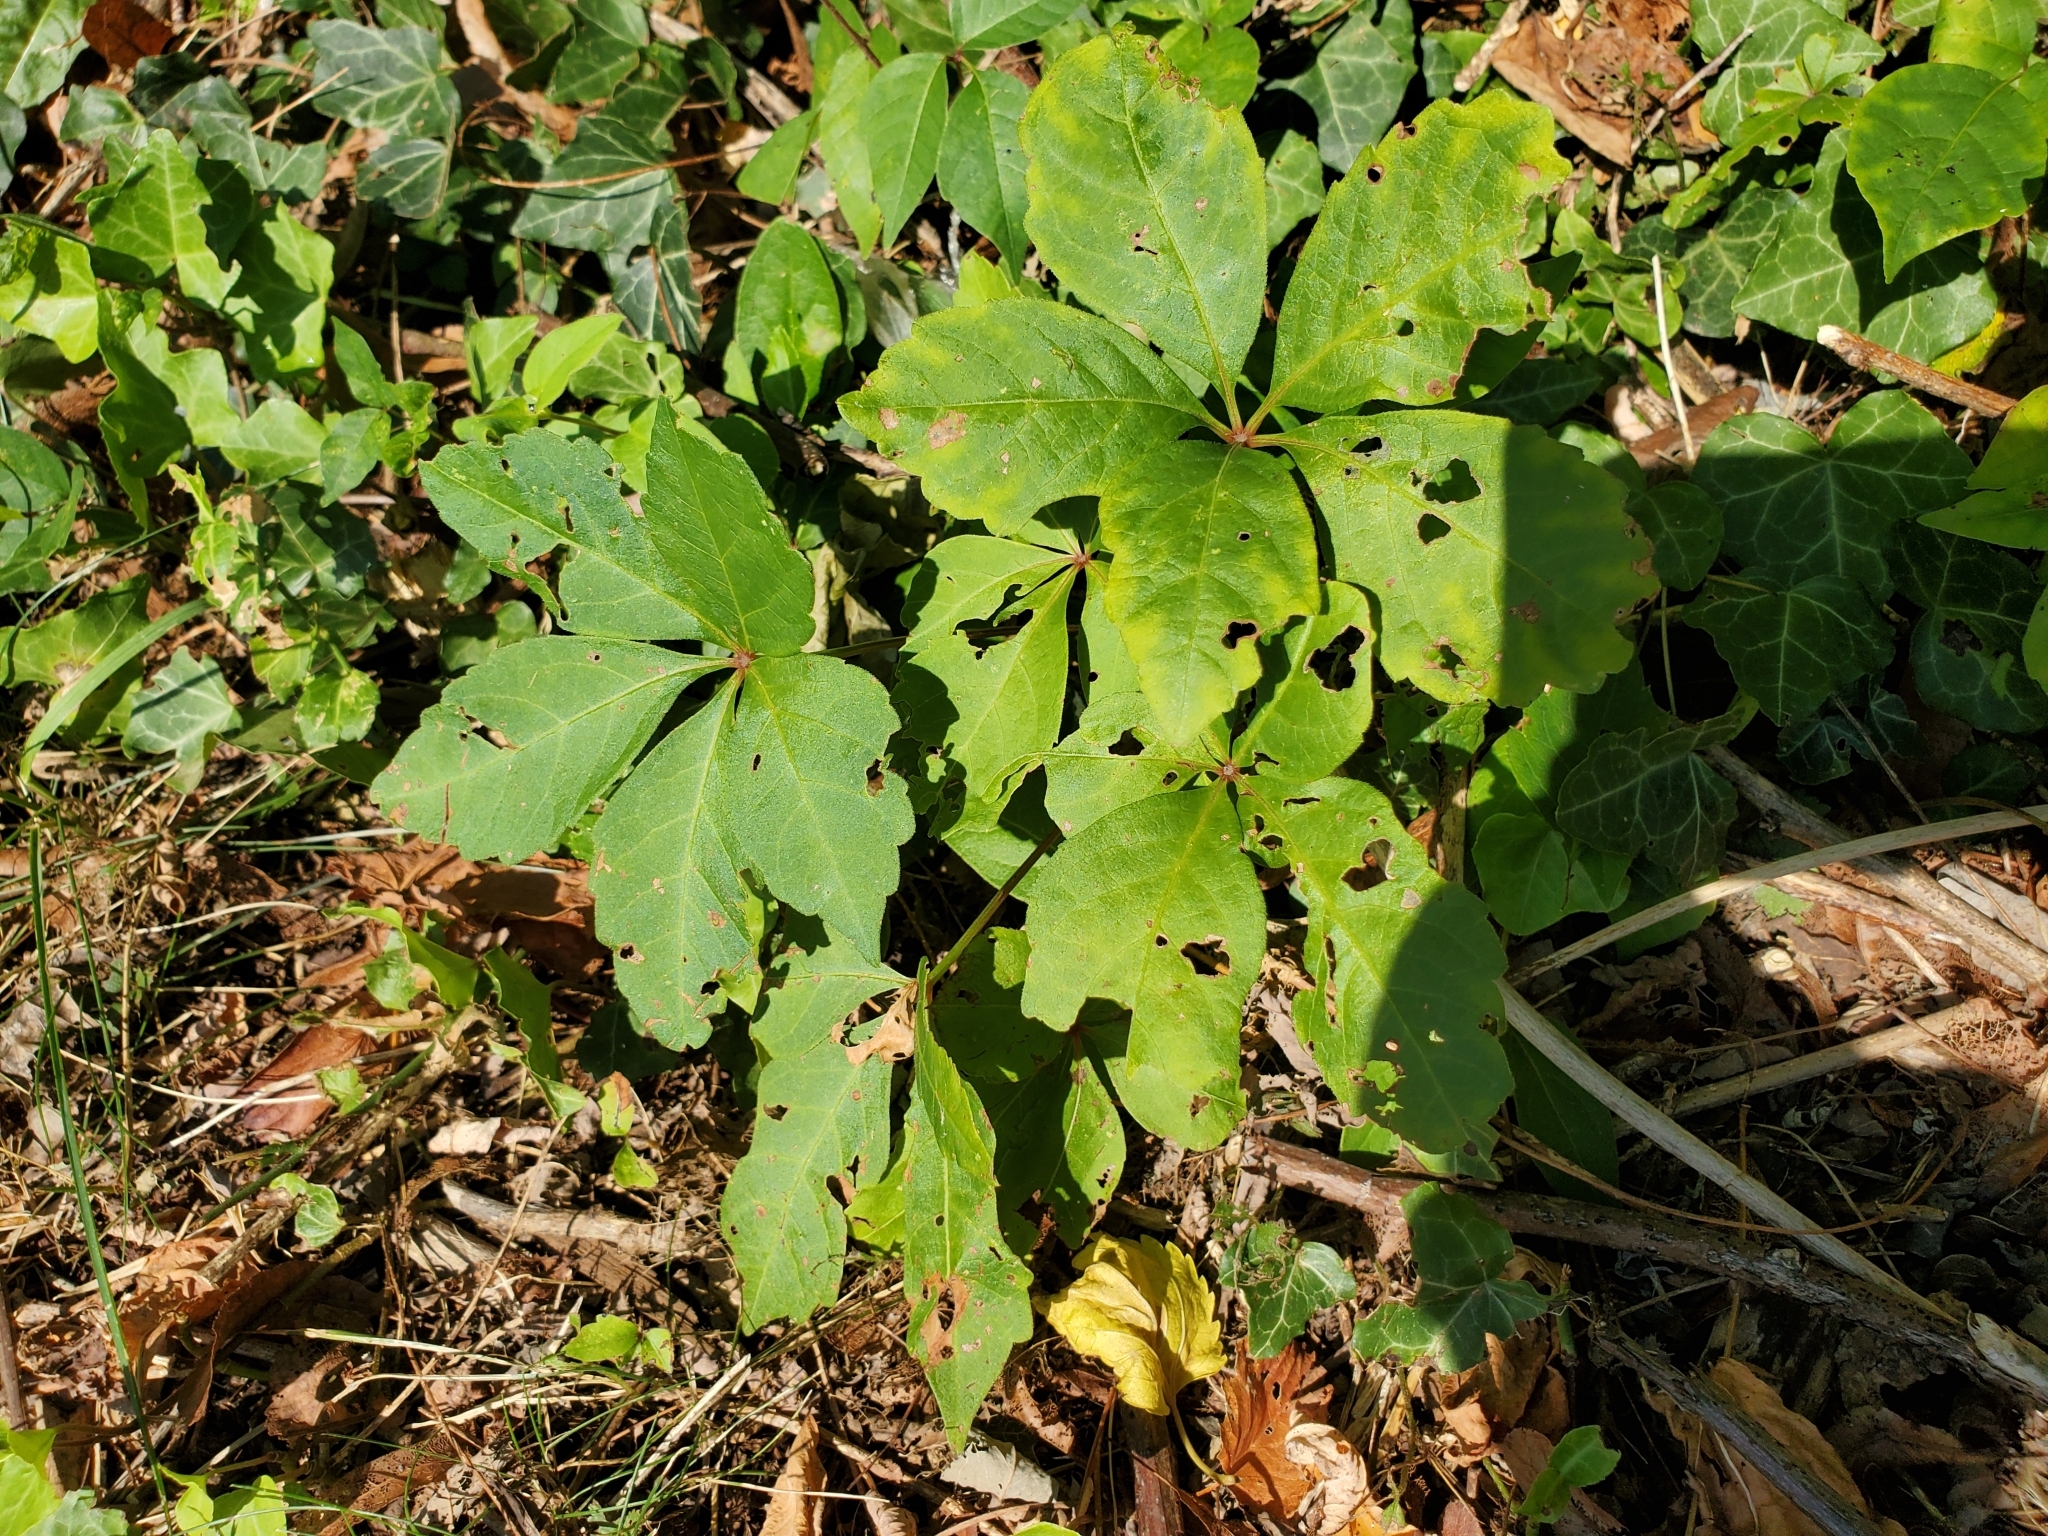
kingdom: Plantae
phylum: Tracheophyta
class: Magnoliopsida
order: Vitales
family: Vitaceae
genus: Parthenocissus
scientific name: Parthenocissus quinquefolia
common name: Virginia-creeper
